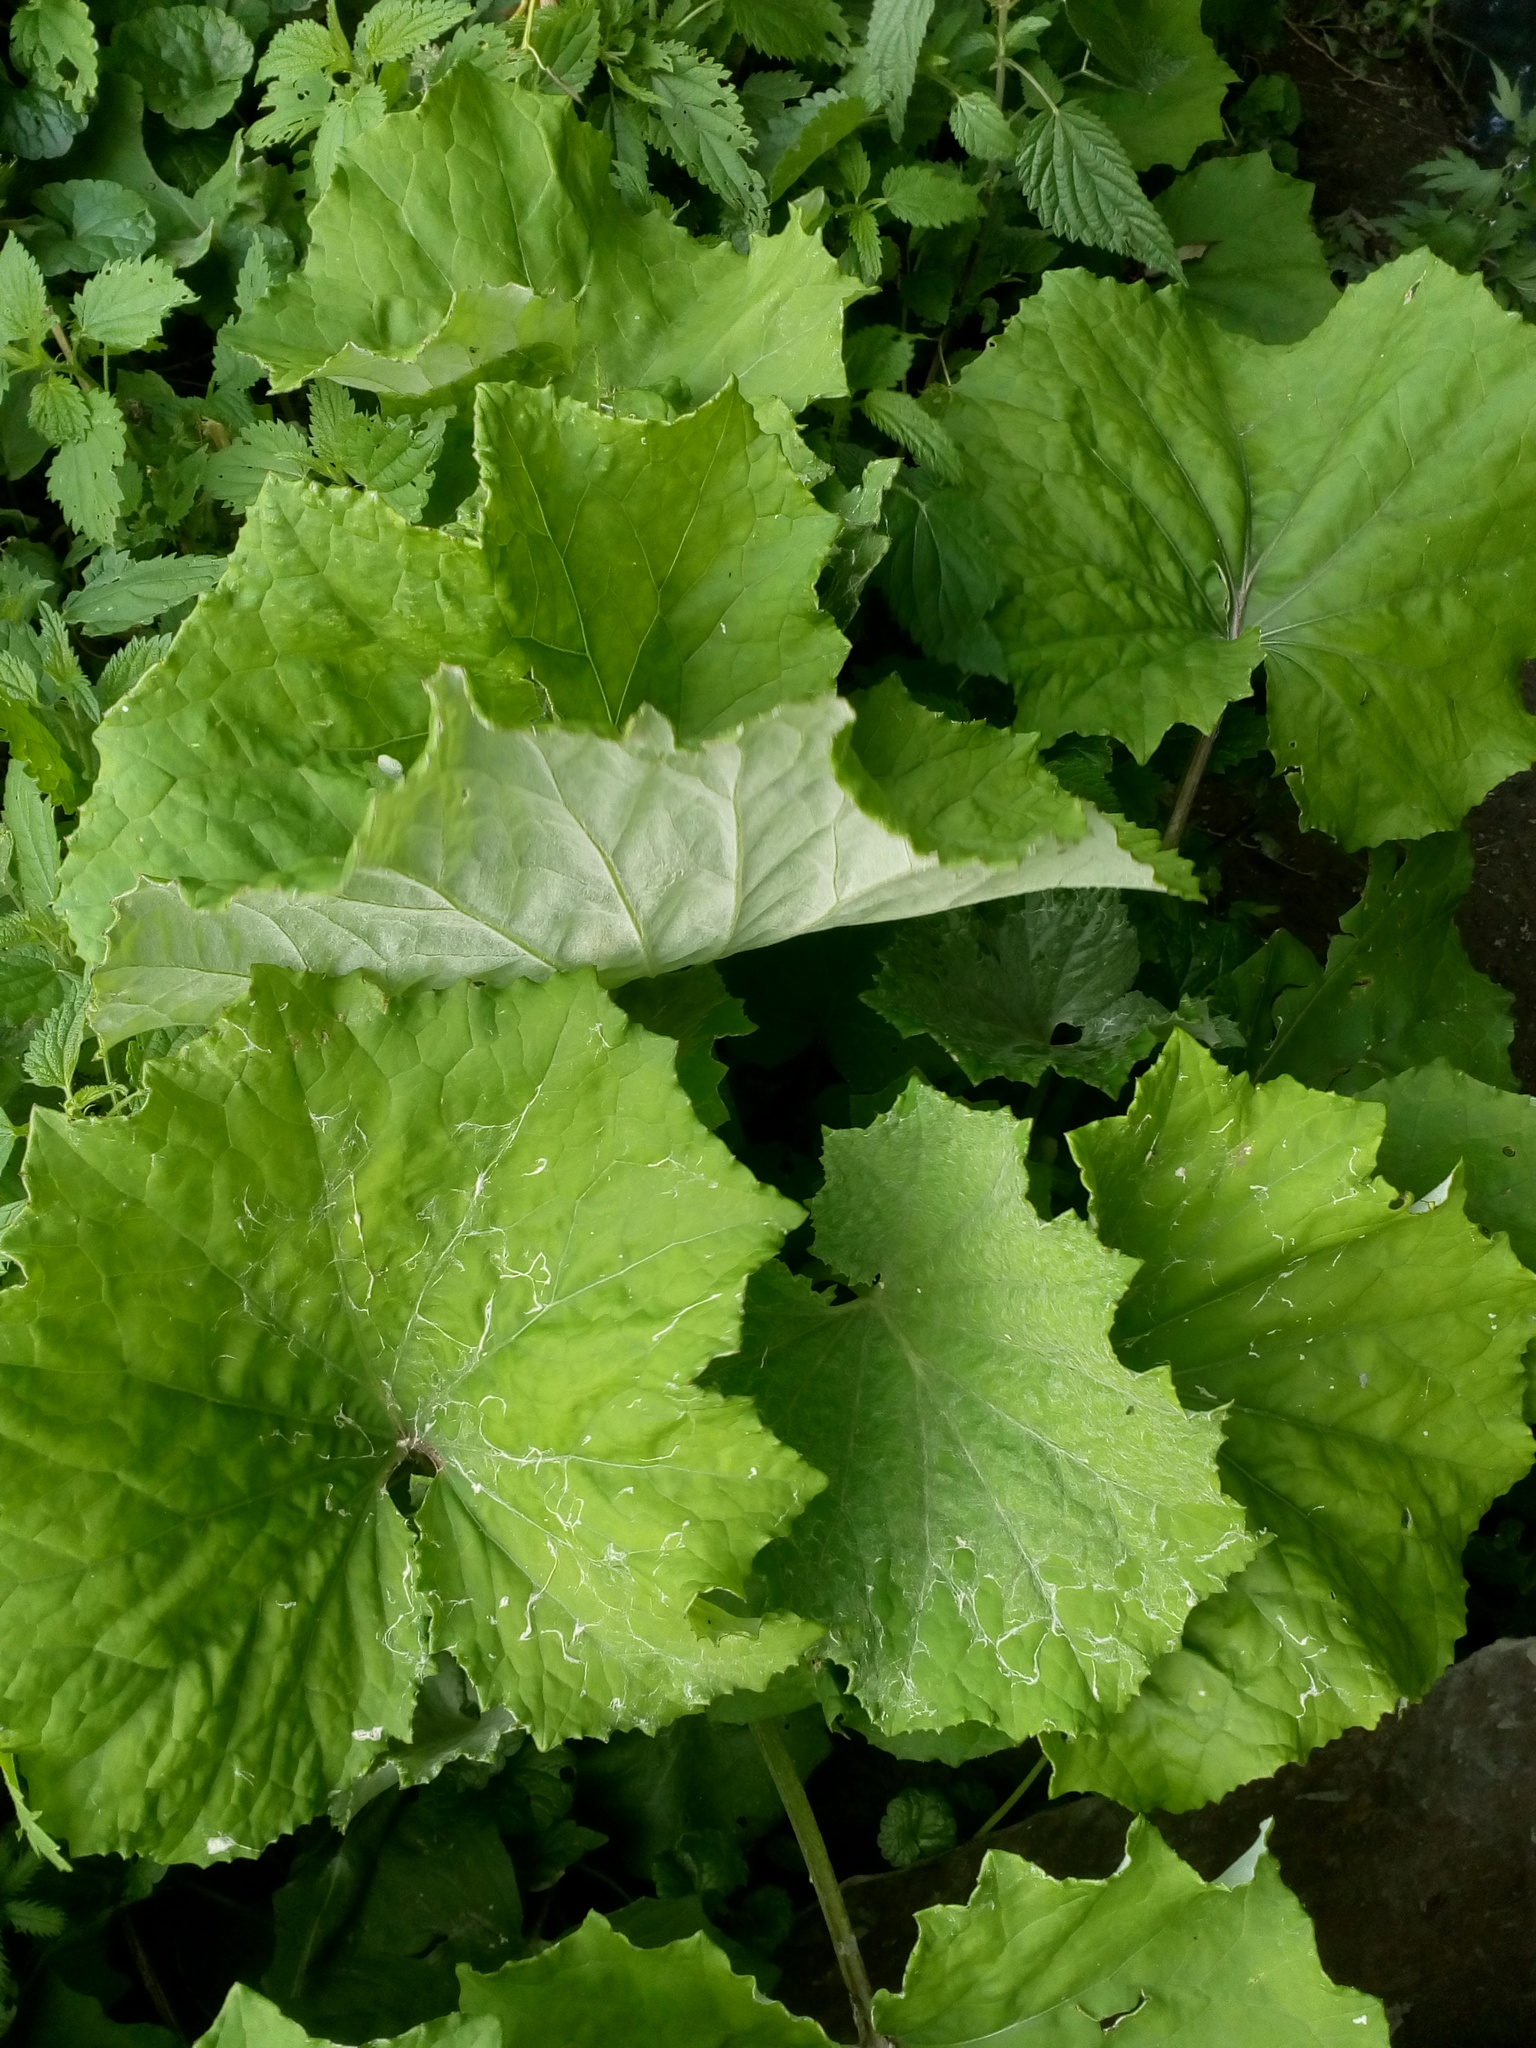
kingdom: Plantae
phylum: Tracheophyta
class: Magnoliopsida
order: Asterales
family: Asteraceae
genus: Tussilago
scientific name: Tussilago farfara
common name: Coltsfoot
